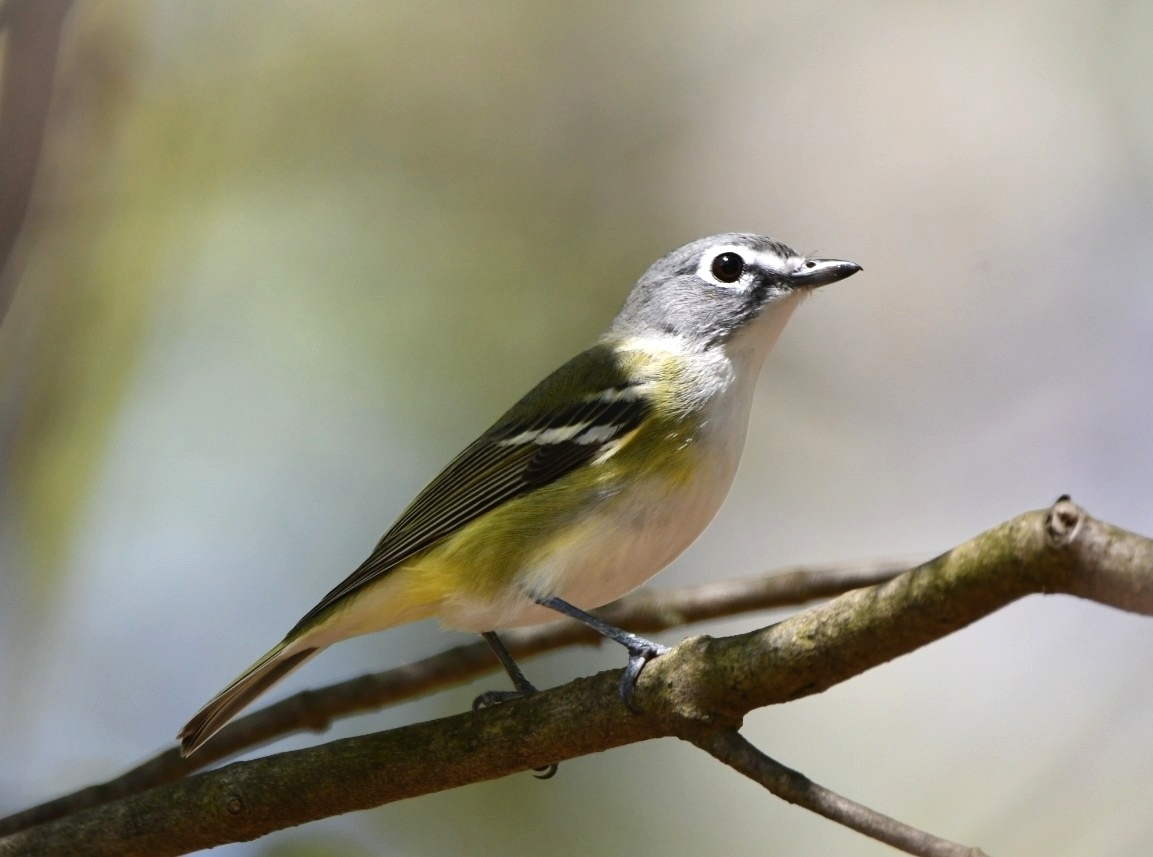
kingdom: Animalia
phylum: Chordata
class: Aves
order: Passeriformes
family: Vireonidae
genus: Vireo
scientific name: Vireo solitarius
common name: Blue-headed vireo
